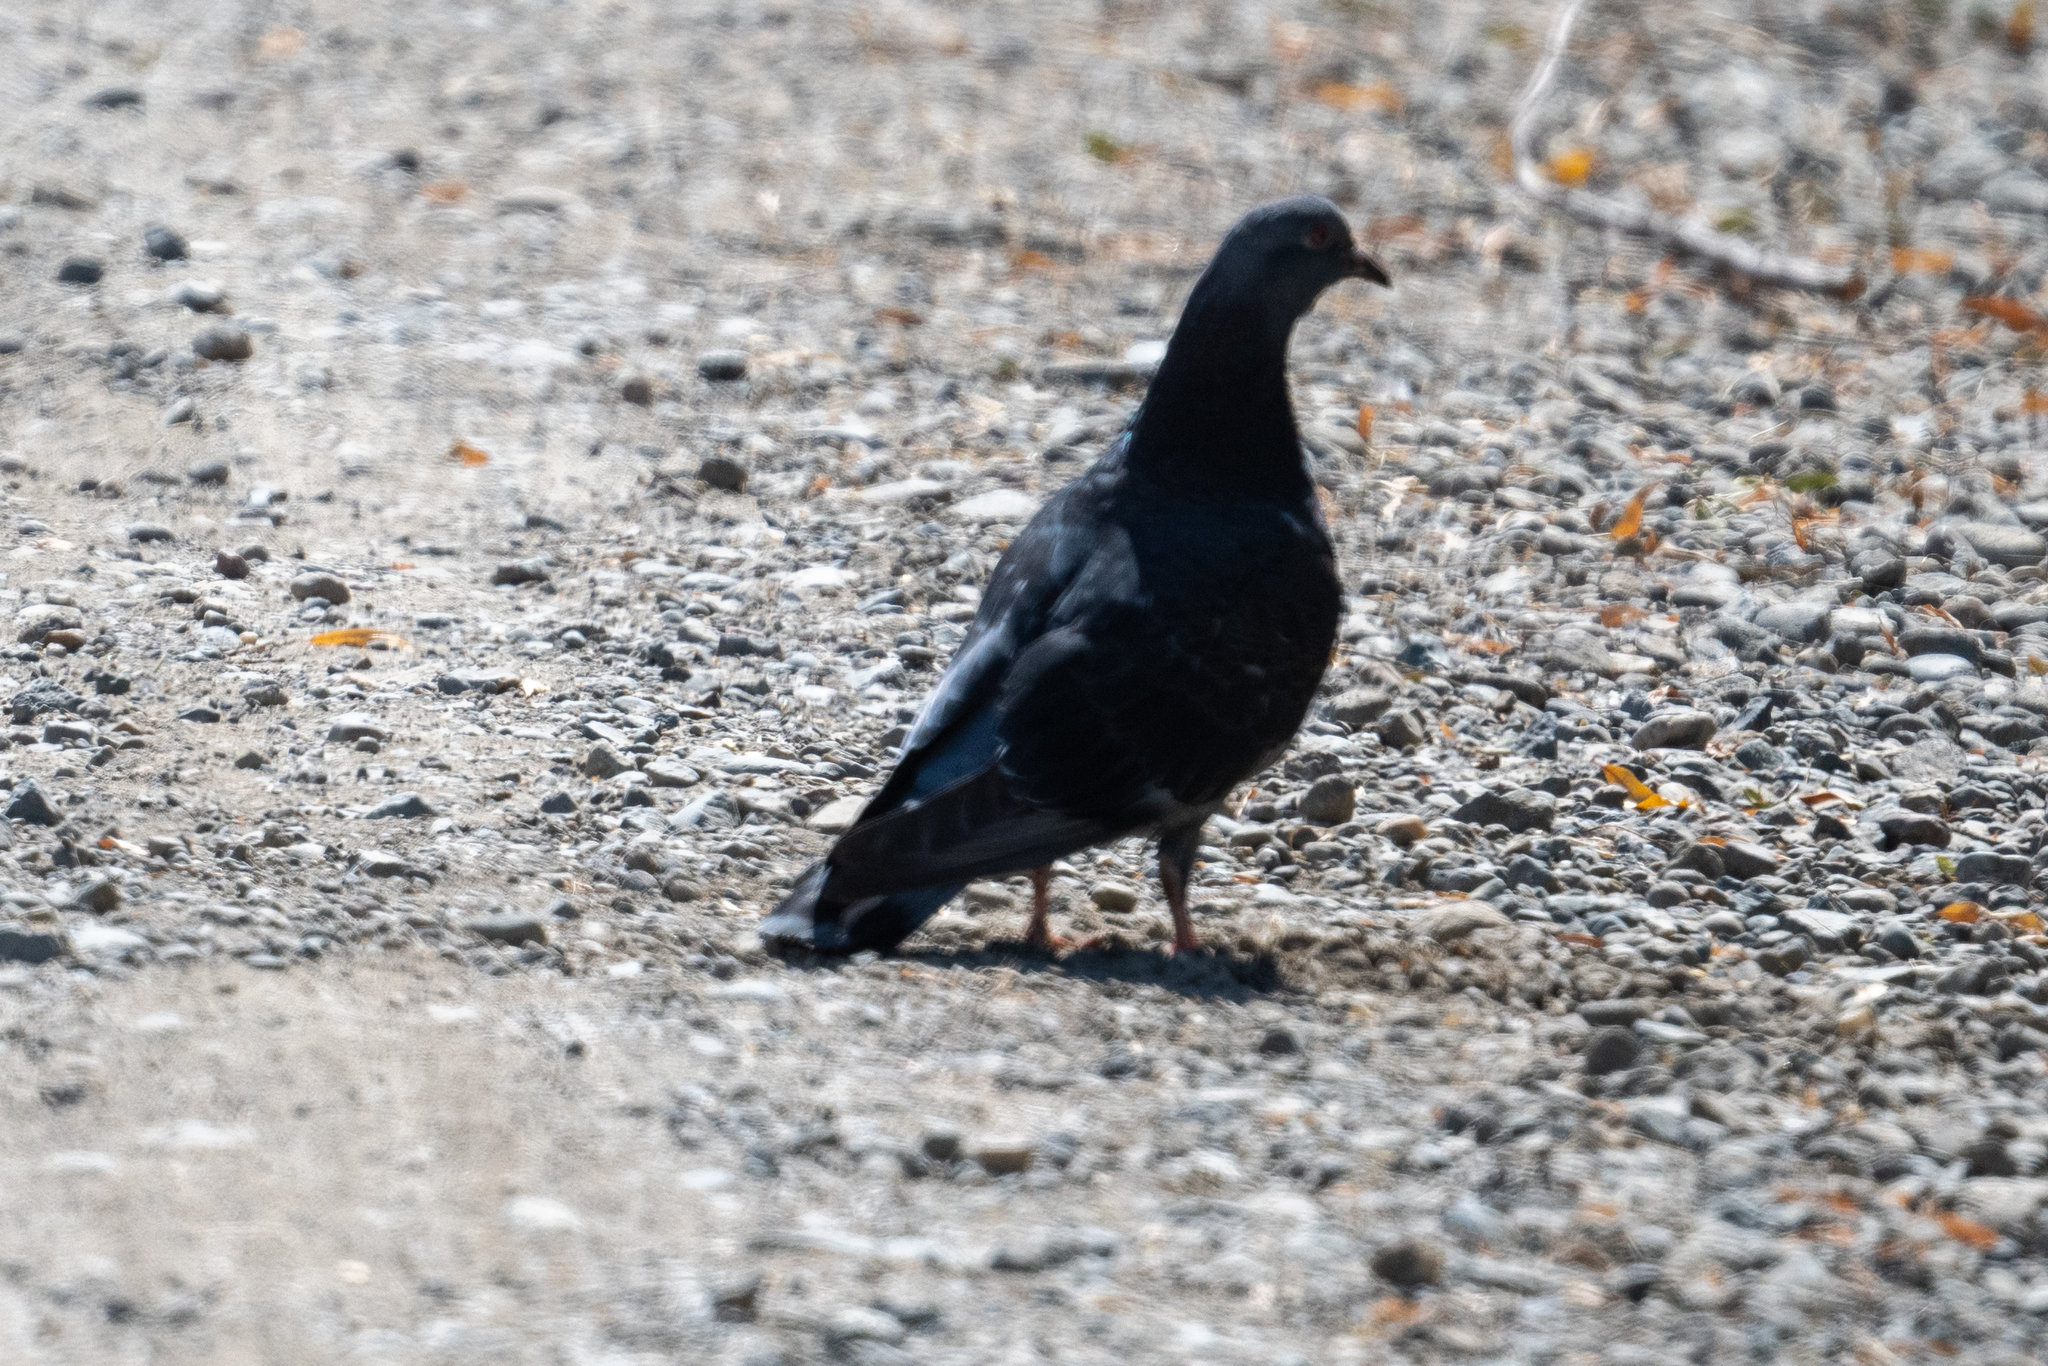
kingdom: Animalia
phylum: Chordata
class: Aves
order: Columbiformes
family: Columbidae
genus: Columba
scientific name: Columba livia
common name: Rock pigeon
